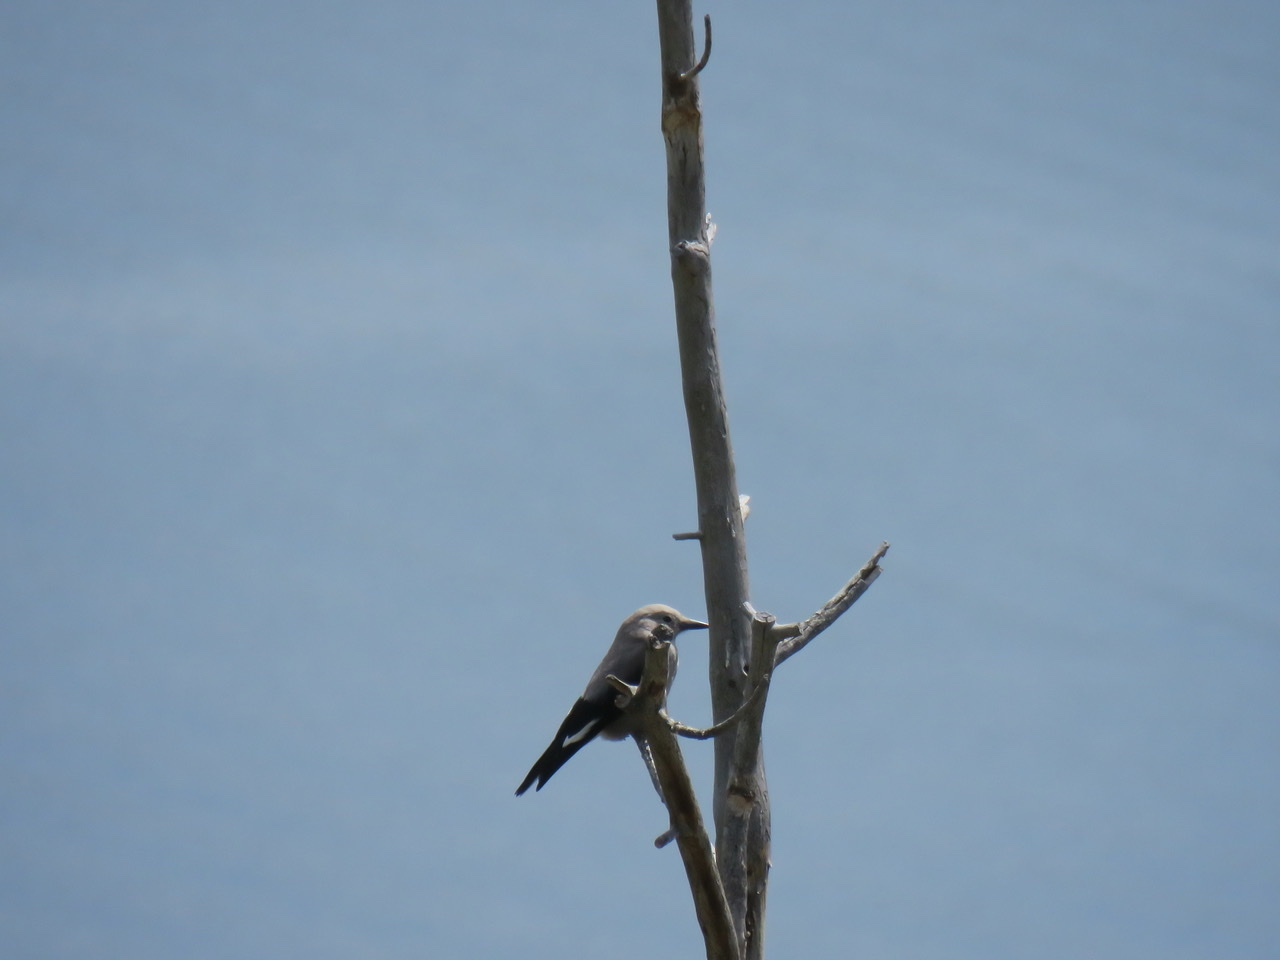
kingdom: Animalia
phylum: Chordata
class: Aves
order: Passeriformes
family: Corvidae
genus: Nucifraga
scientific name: Nucifraga columbiana
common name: Clark's nutcracker
